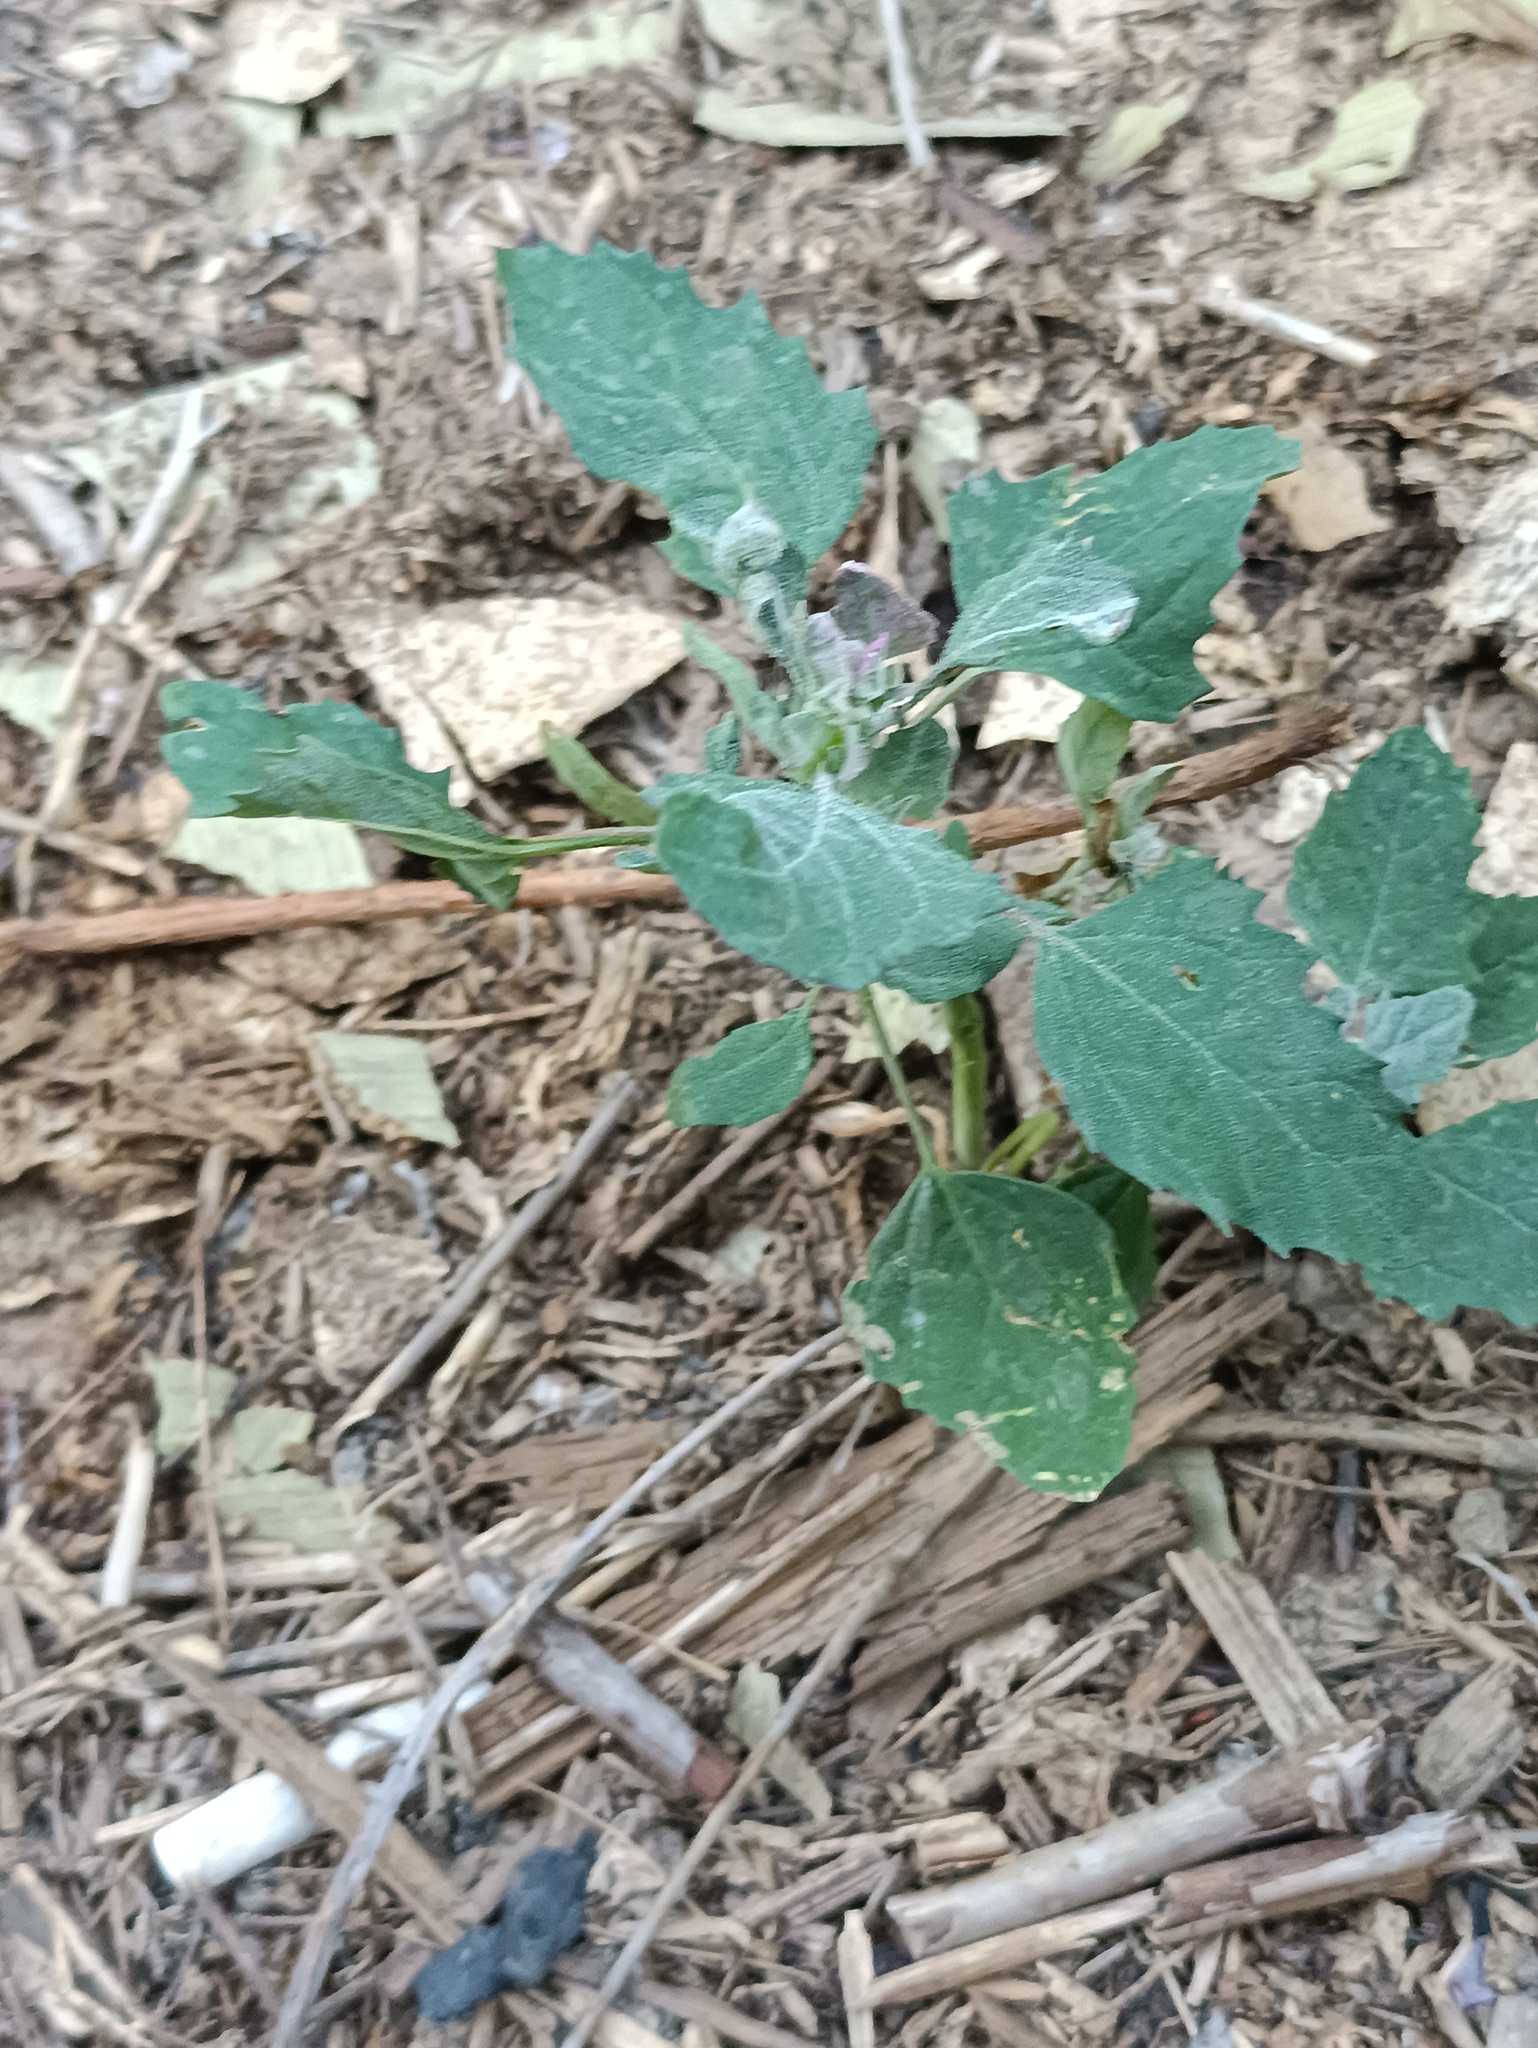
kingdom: Plantae
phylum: Tracheophyta
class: Magnoliopsida
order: Caryophyllales
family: Amaranthaceae
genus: Chenopodium
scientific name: Chenopodium album
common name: Fat-hen
